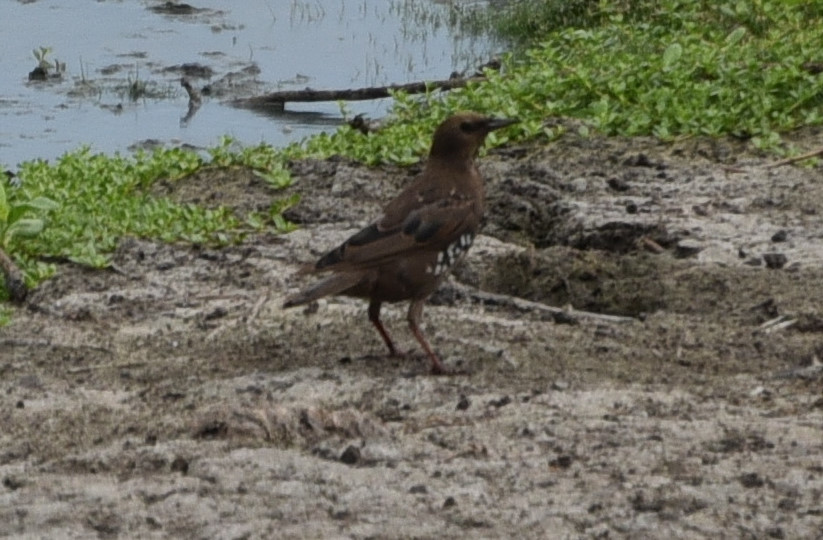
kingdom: Animalia
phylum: Chordata
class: Aves
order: Passeriformes
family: Sturnidae
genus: Sturnus
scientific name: Sturnus vulgaris
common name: Common starling
